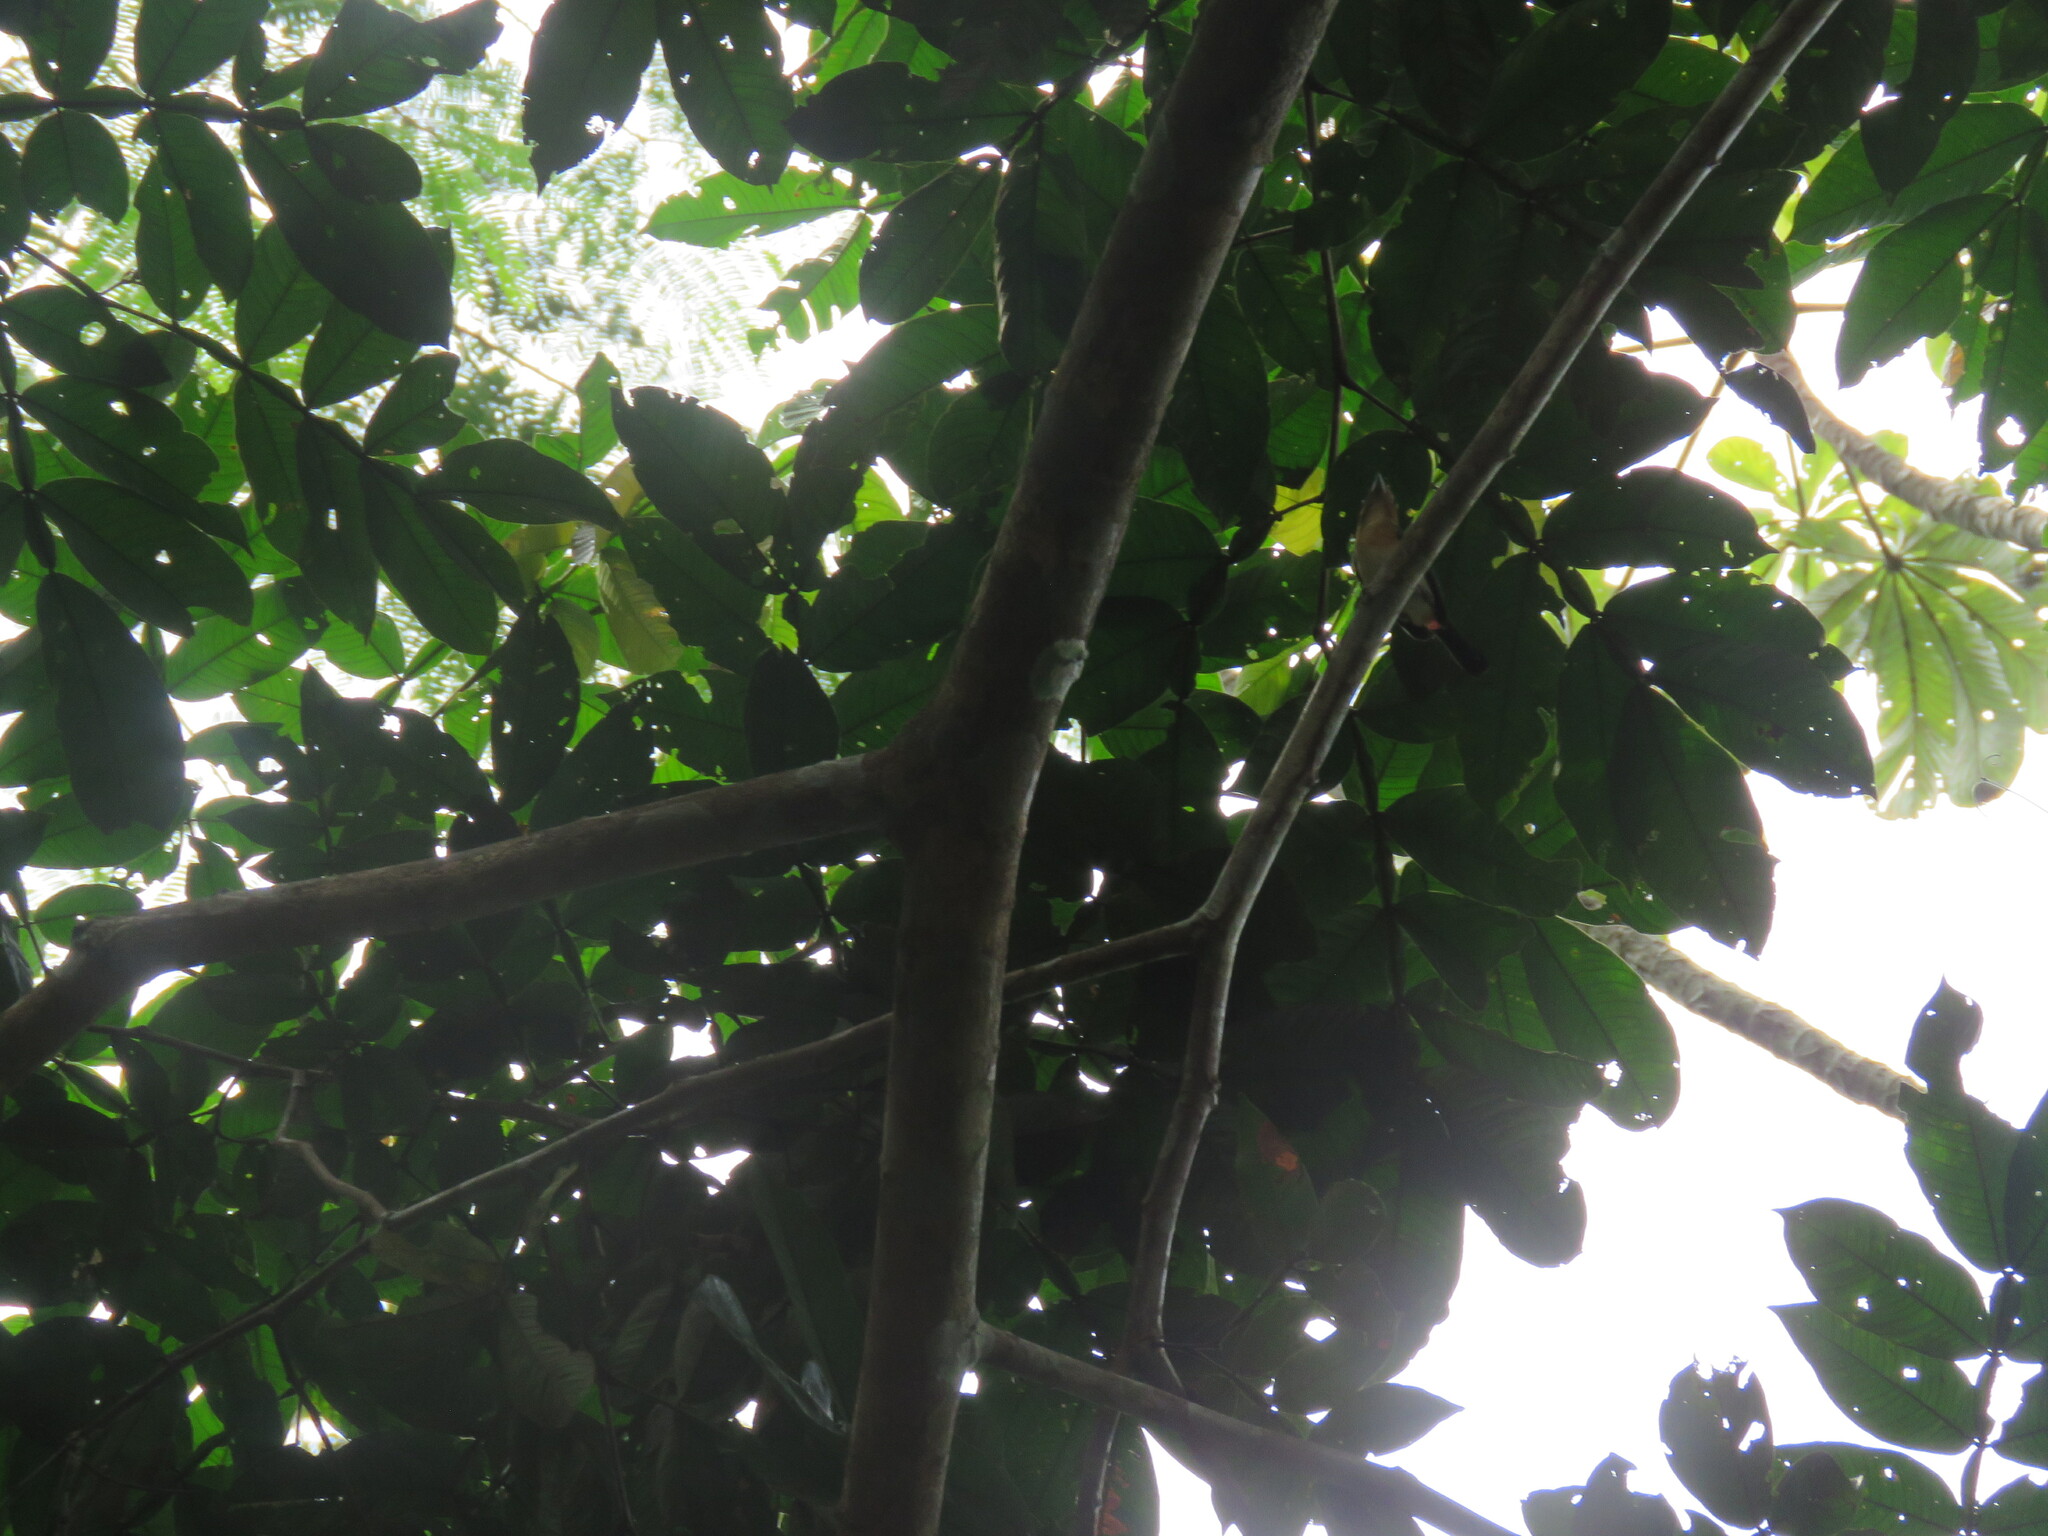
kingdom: Animalia
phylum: Chordata
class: Aves
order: Passeriformes
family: Cardinalidae
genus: Granatellus
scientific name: Granatellus pelzelni
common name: Rose-breasted chat
